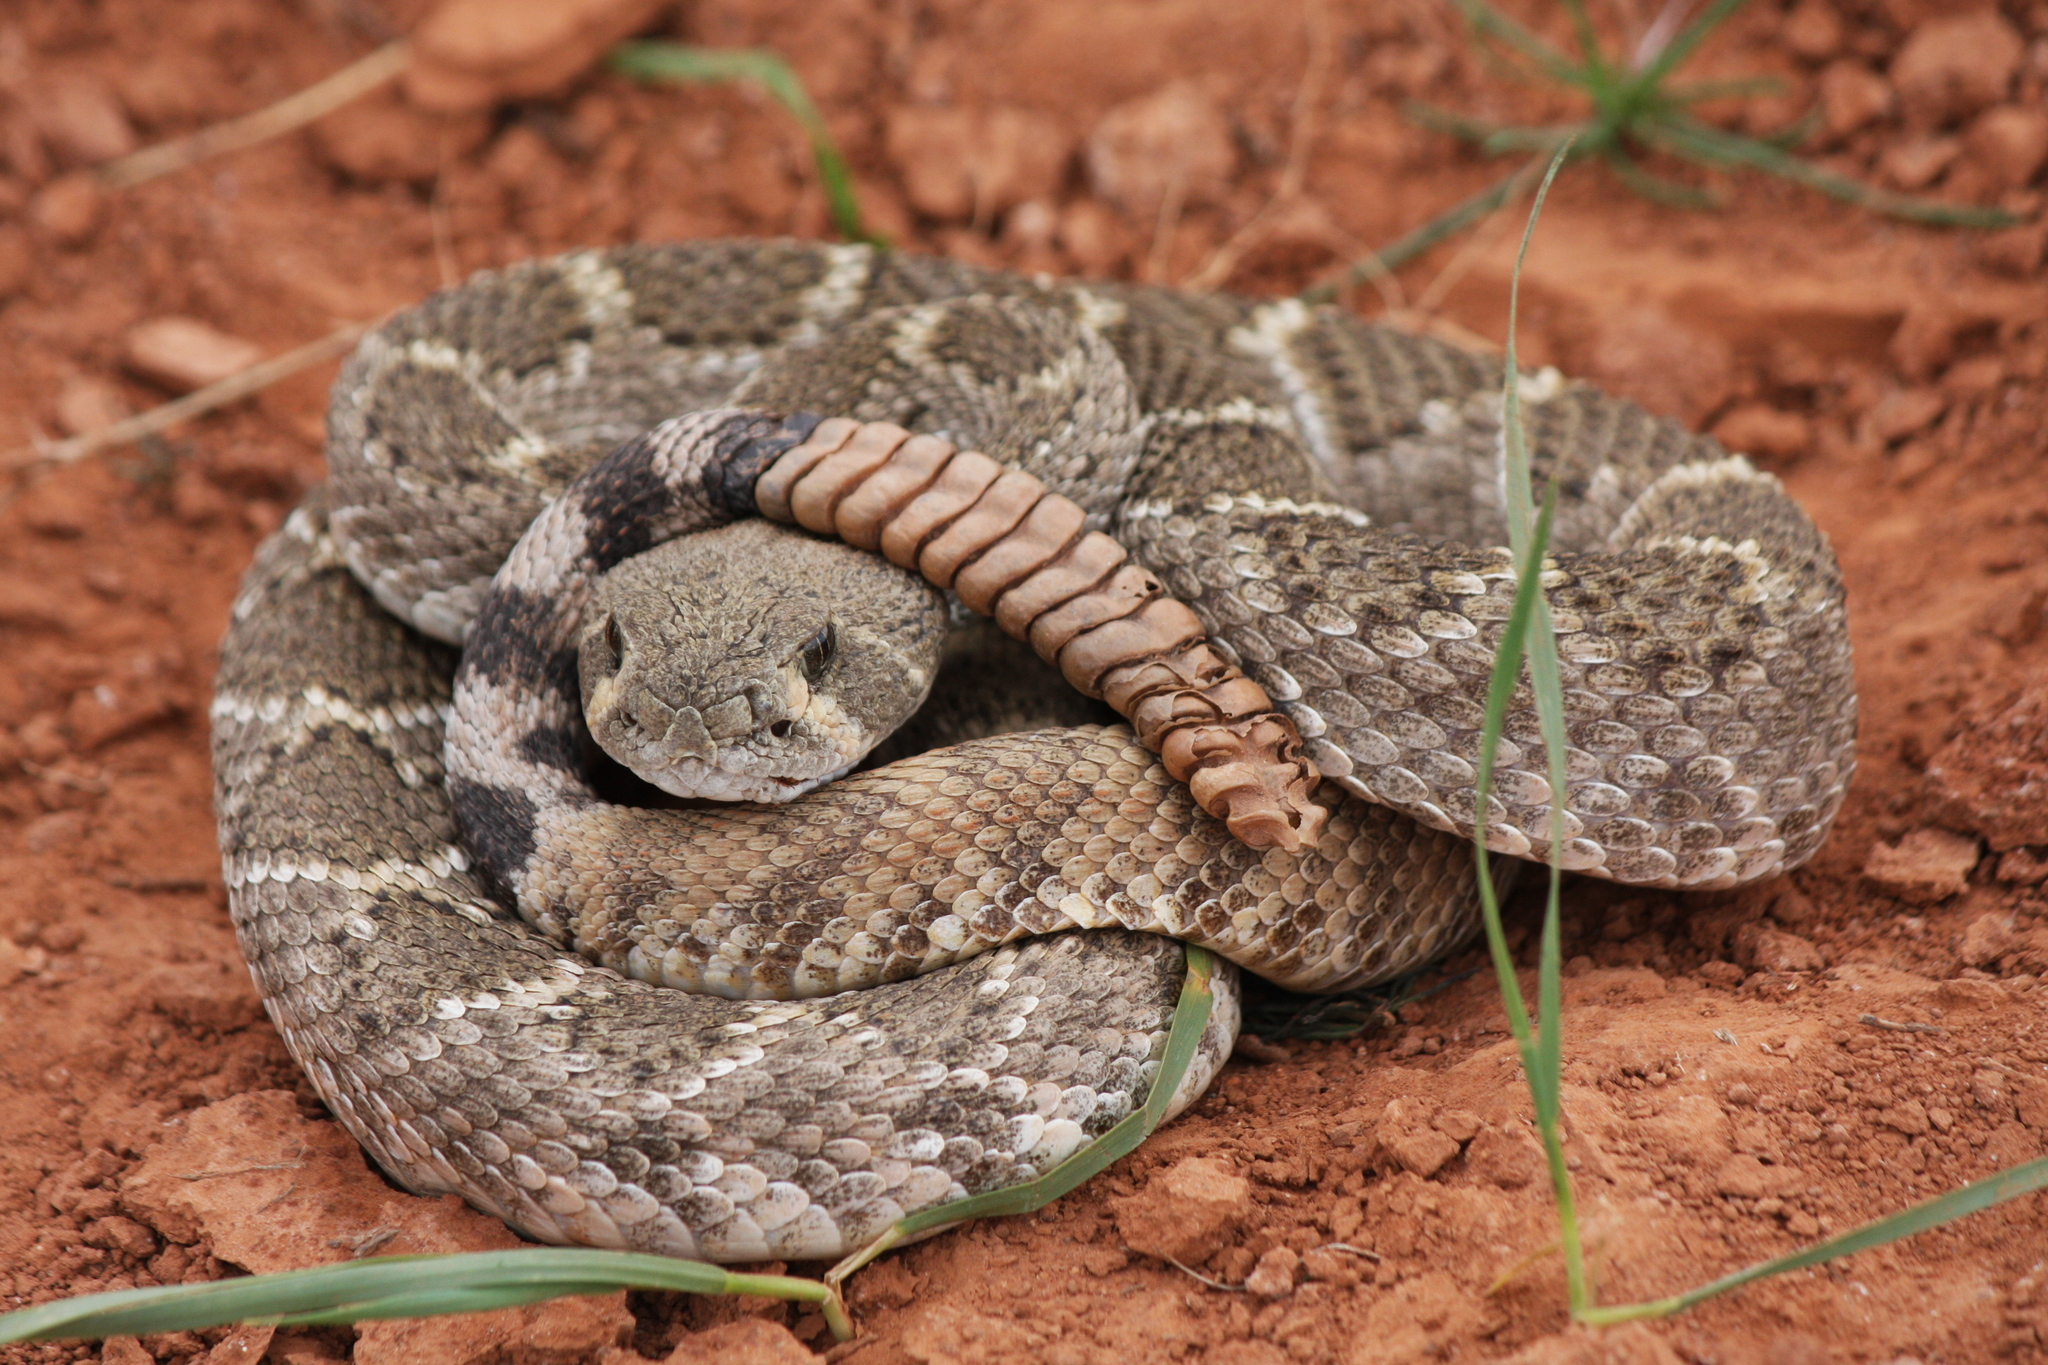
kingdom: Animalia
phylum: Chordata
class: Squamata
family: Viperidae
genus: Crotalus
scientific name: Crotalus atrox
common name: Western diamond-backed rattlesnake
